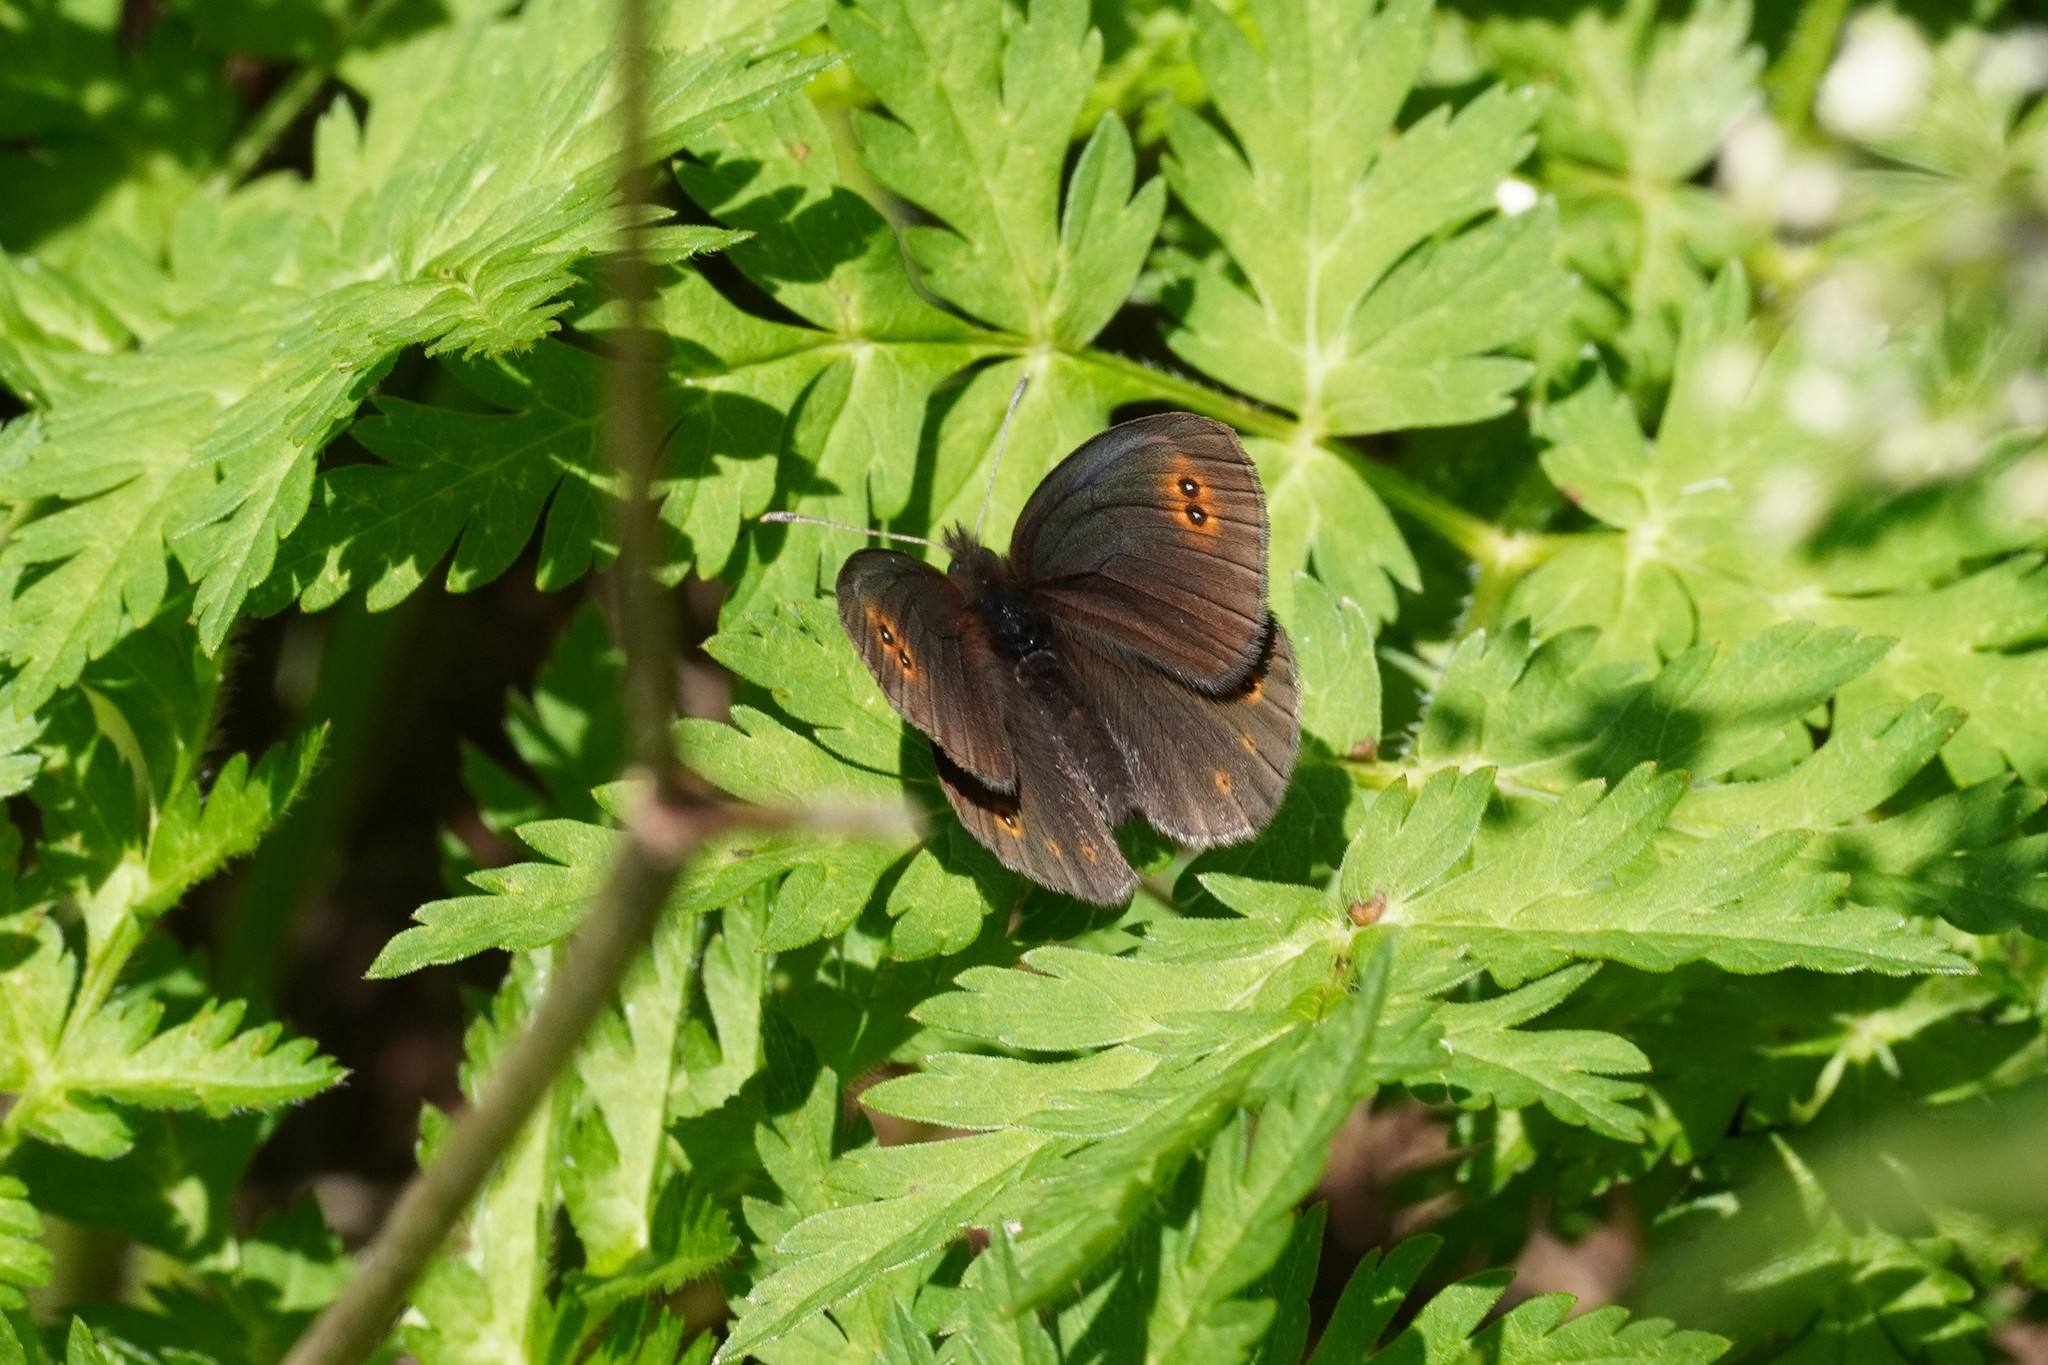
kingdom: Animalia
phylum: Arthropoda
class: Insecta
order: Lepidoptera
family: Nymphalidae
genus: Erebia
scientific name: Erebia medusa
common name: Woodland ringlet
